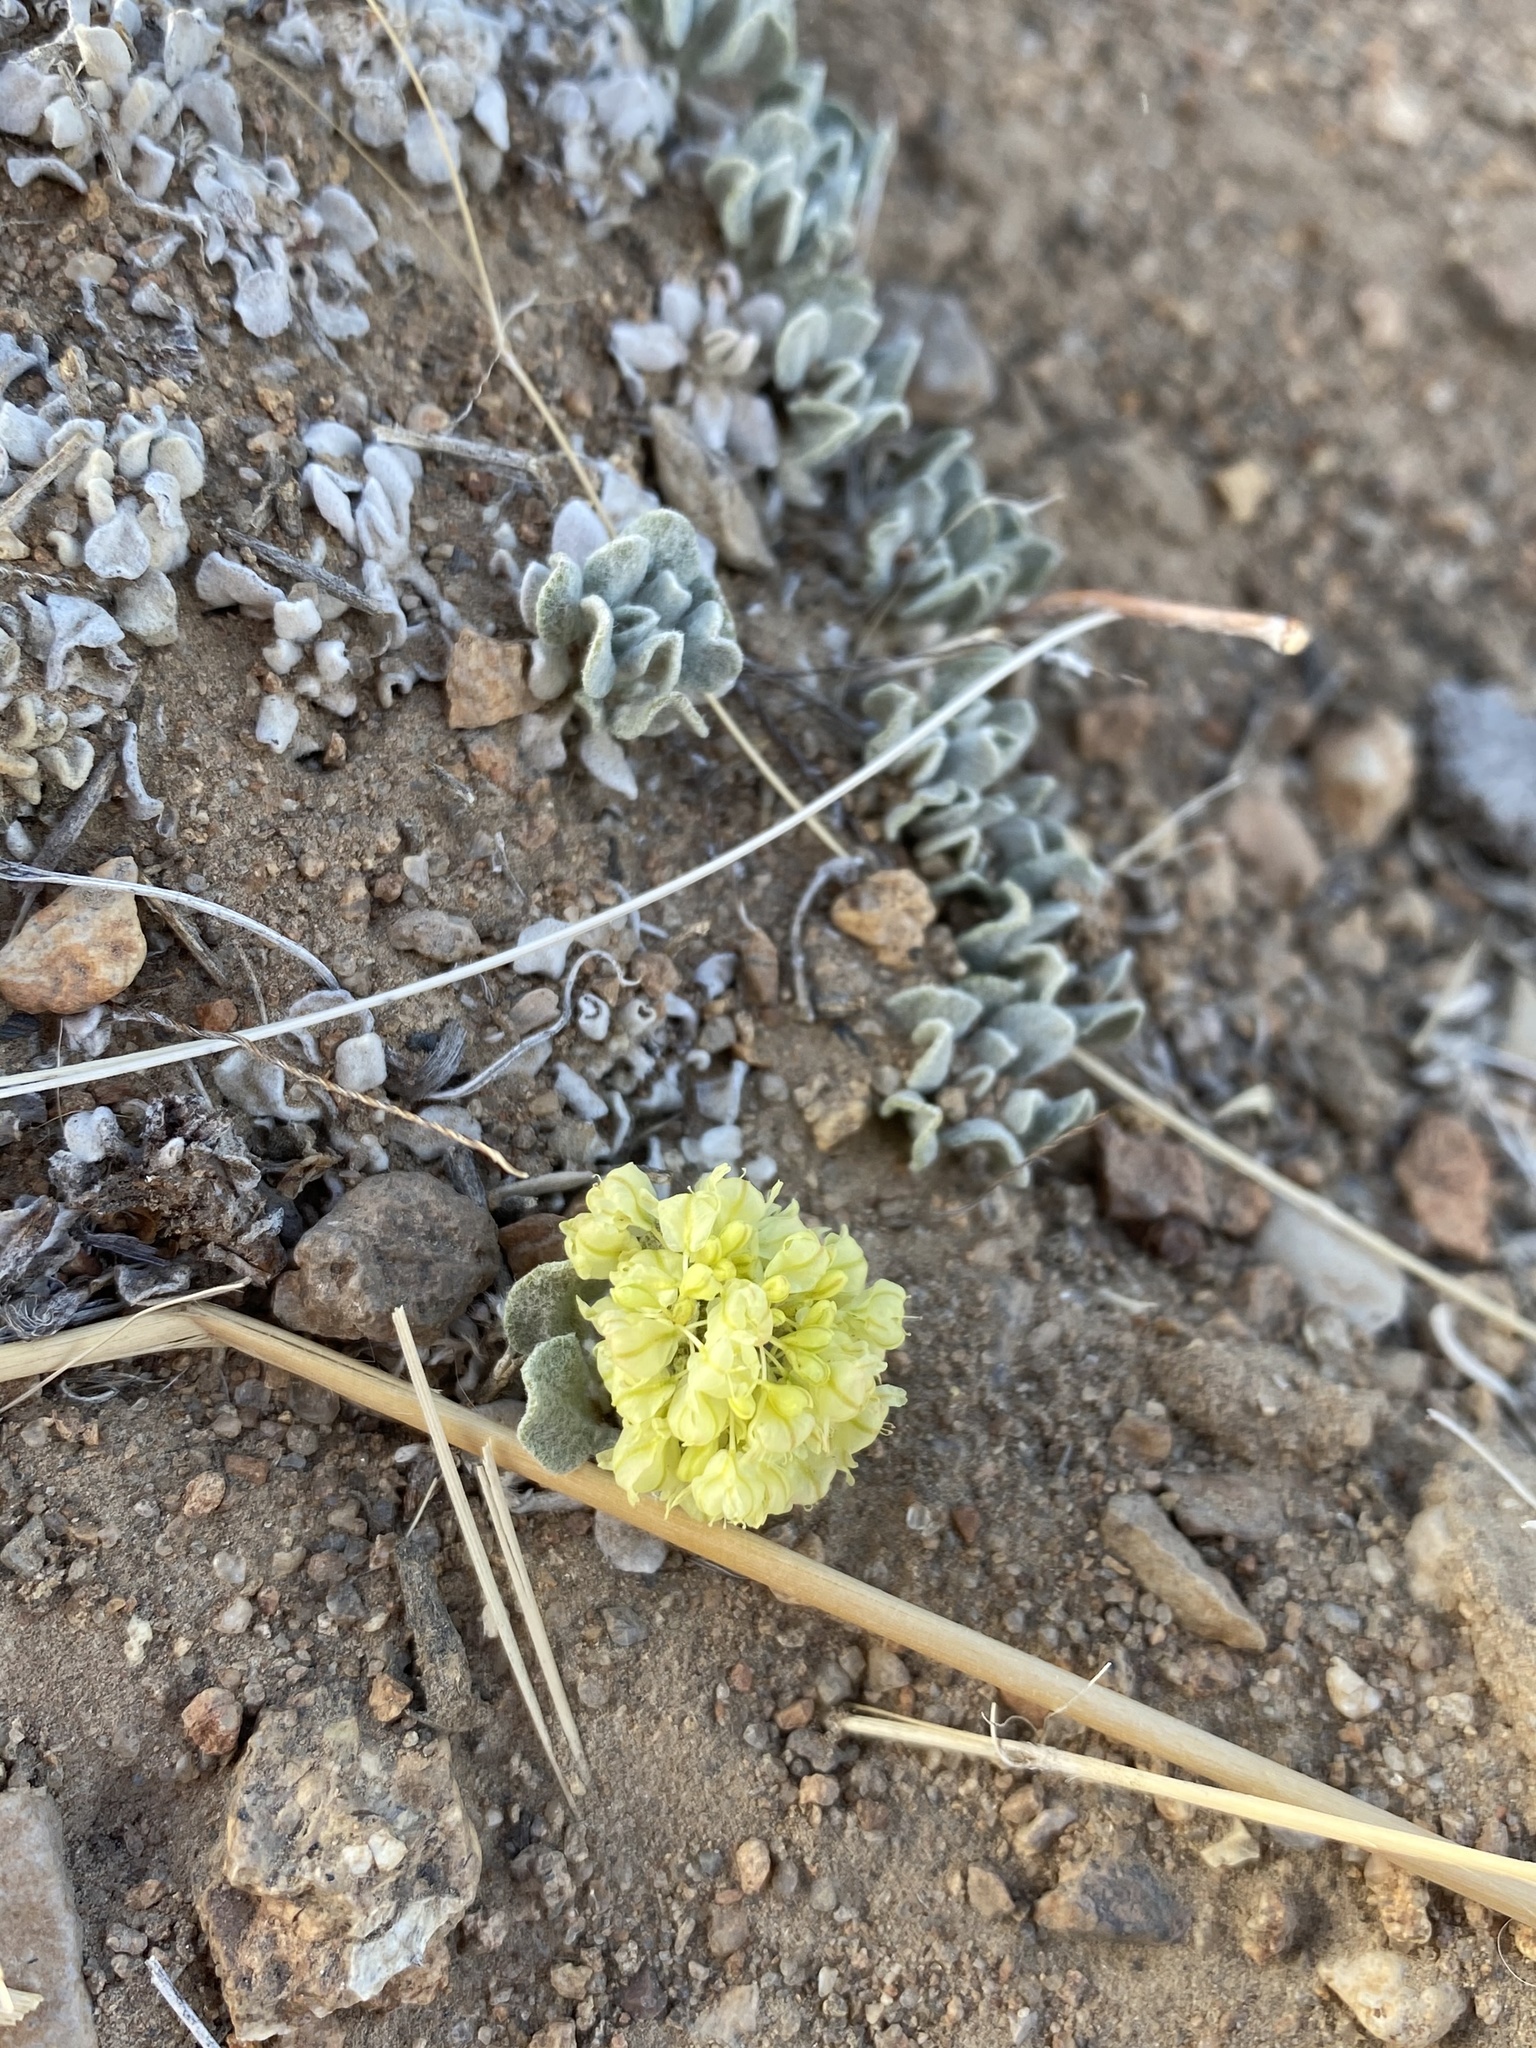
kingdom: Plantae
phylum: Tracheophyta
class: Magnoliopsida
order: Caryophyllales
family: Polygonaceae
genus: Eriogonum
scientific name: Eriogonum ovalifolium
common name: Cushion buckwheat
